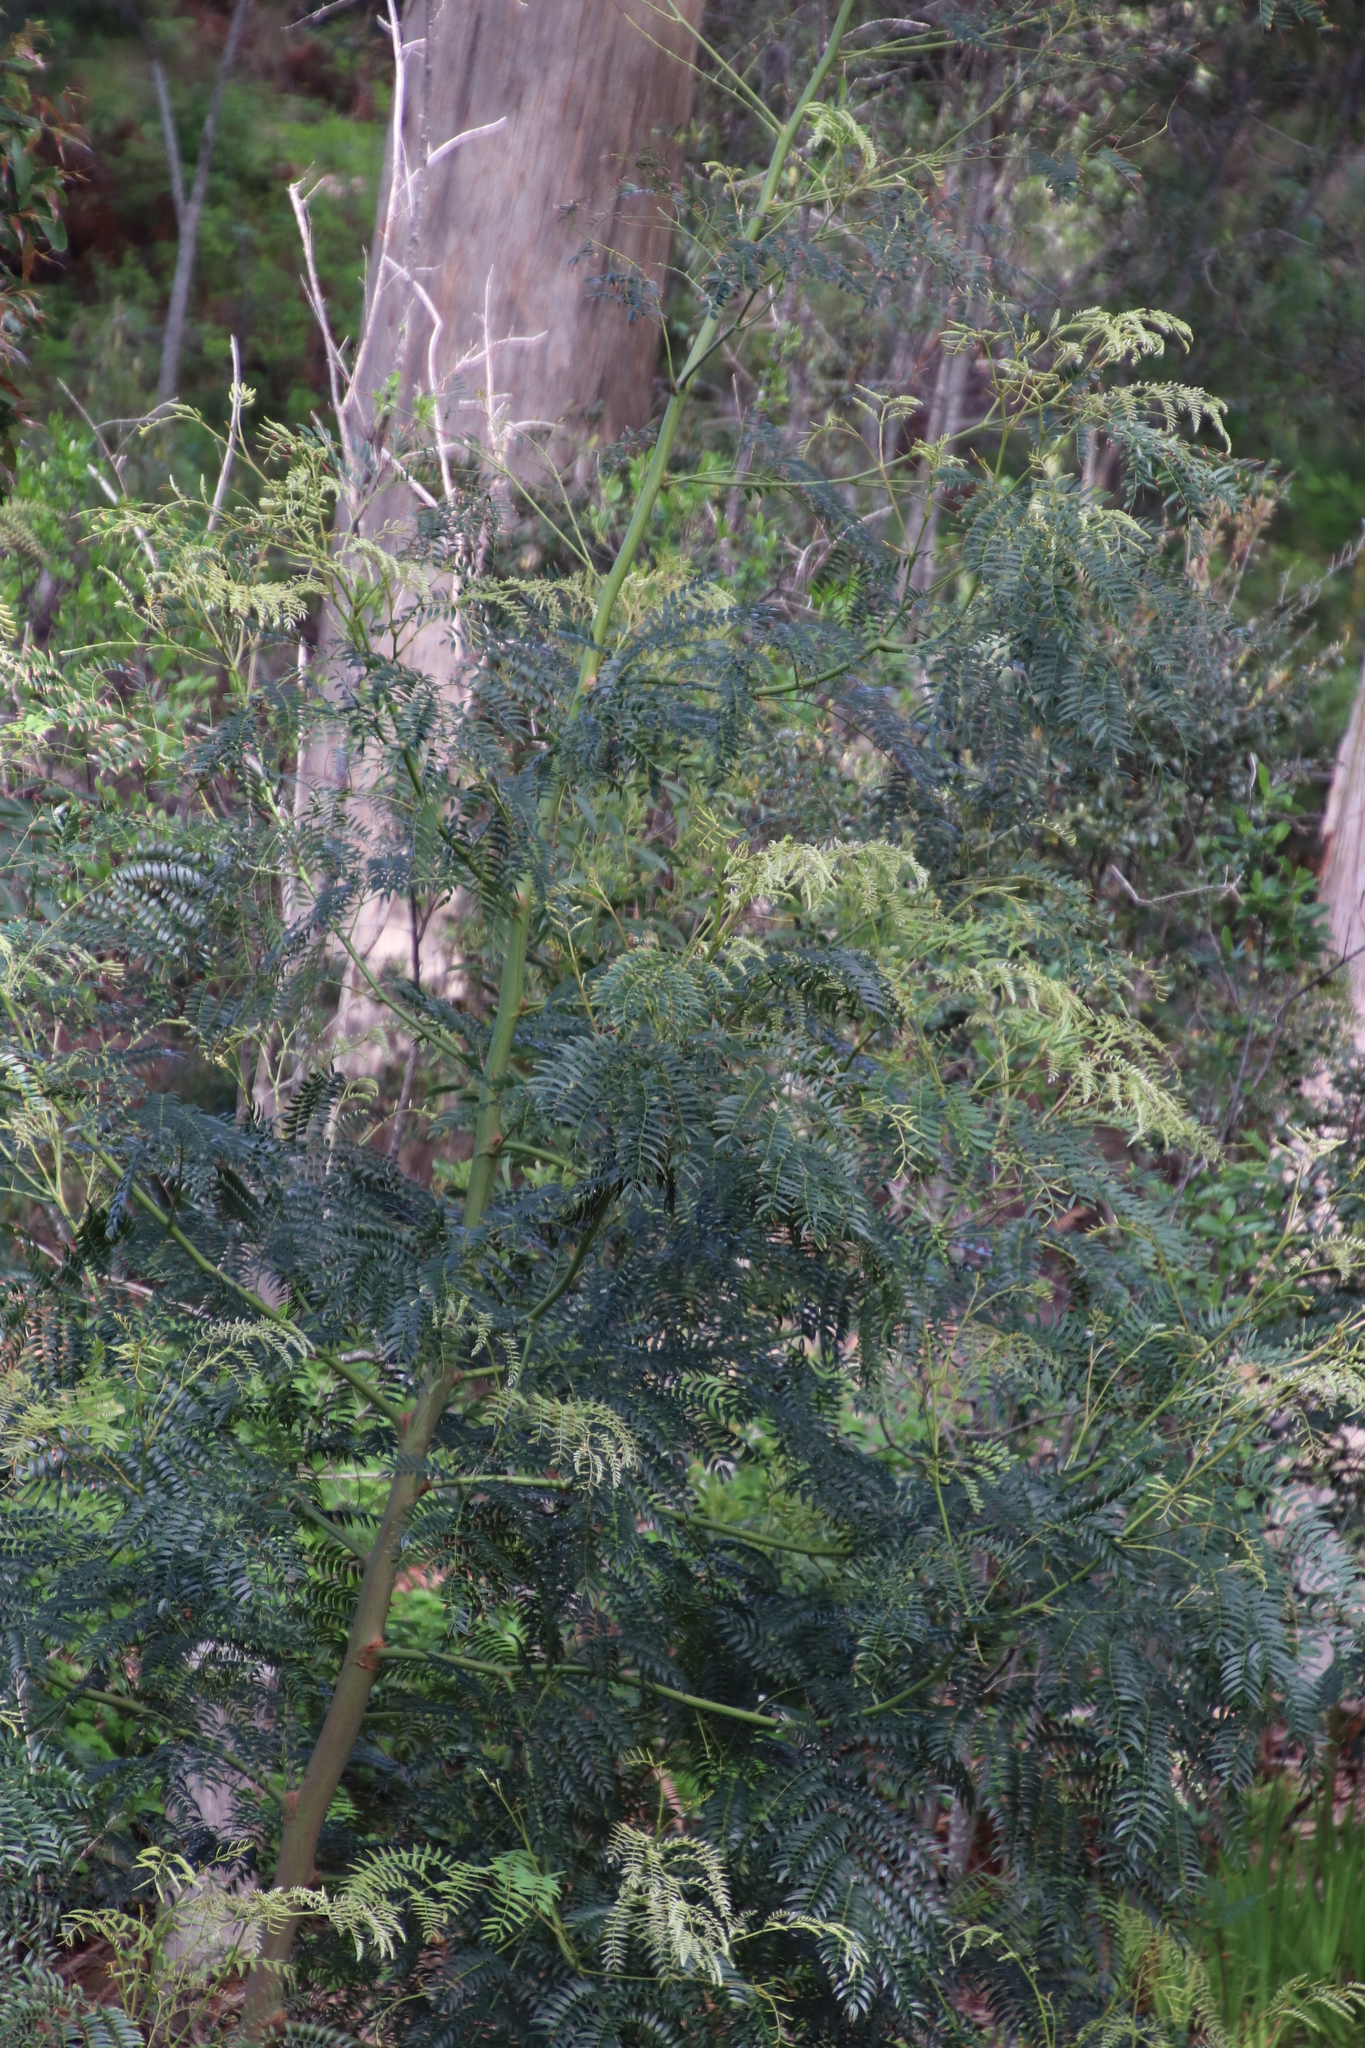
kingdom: Plantae
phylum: Tracheophyta
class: Magnoliopsida
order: Fabales
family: Fabaceae
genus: Acacia
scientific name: Acacia elata
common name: Cedar wattle
